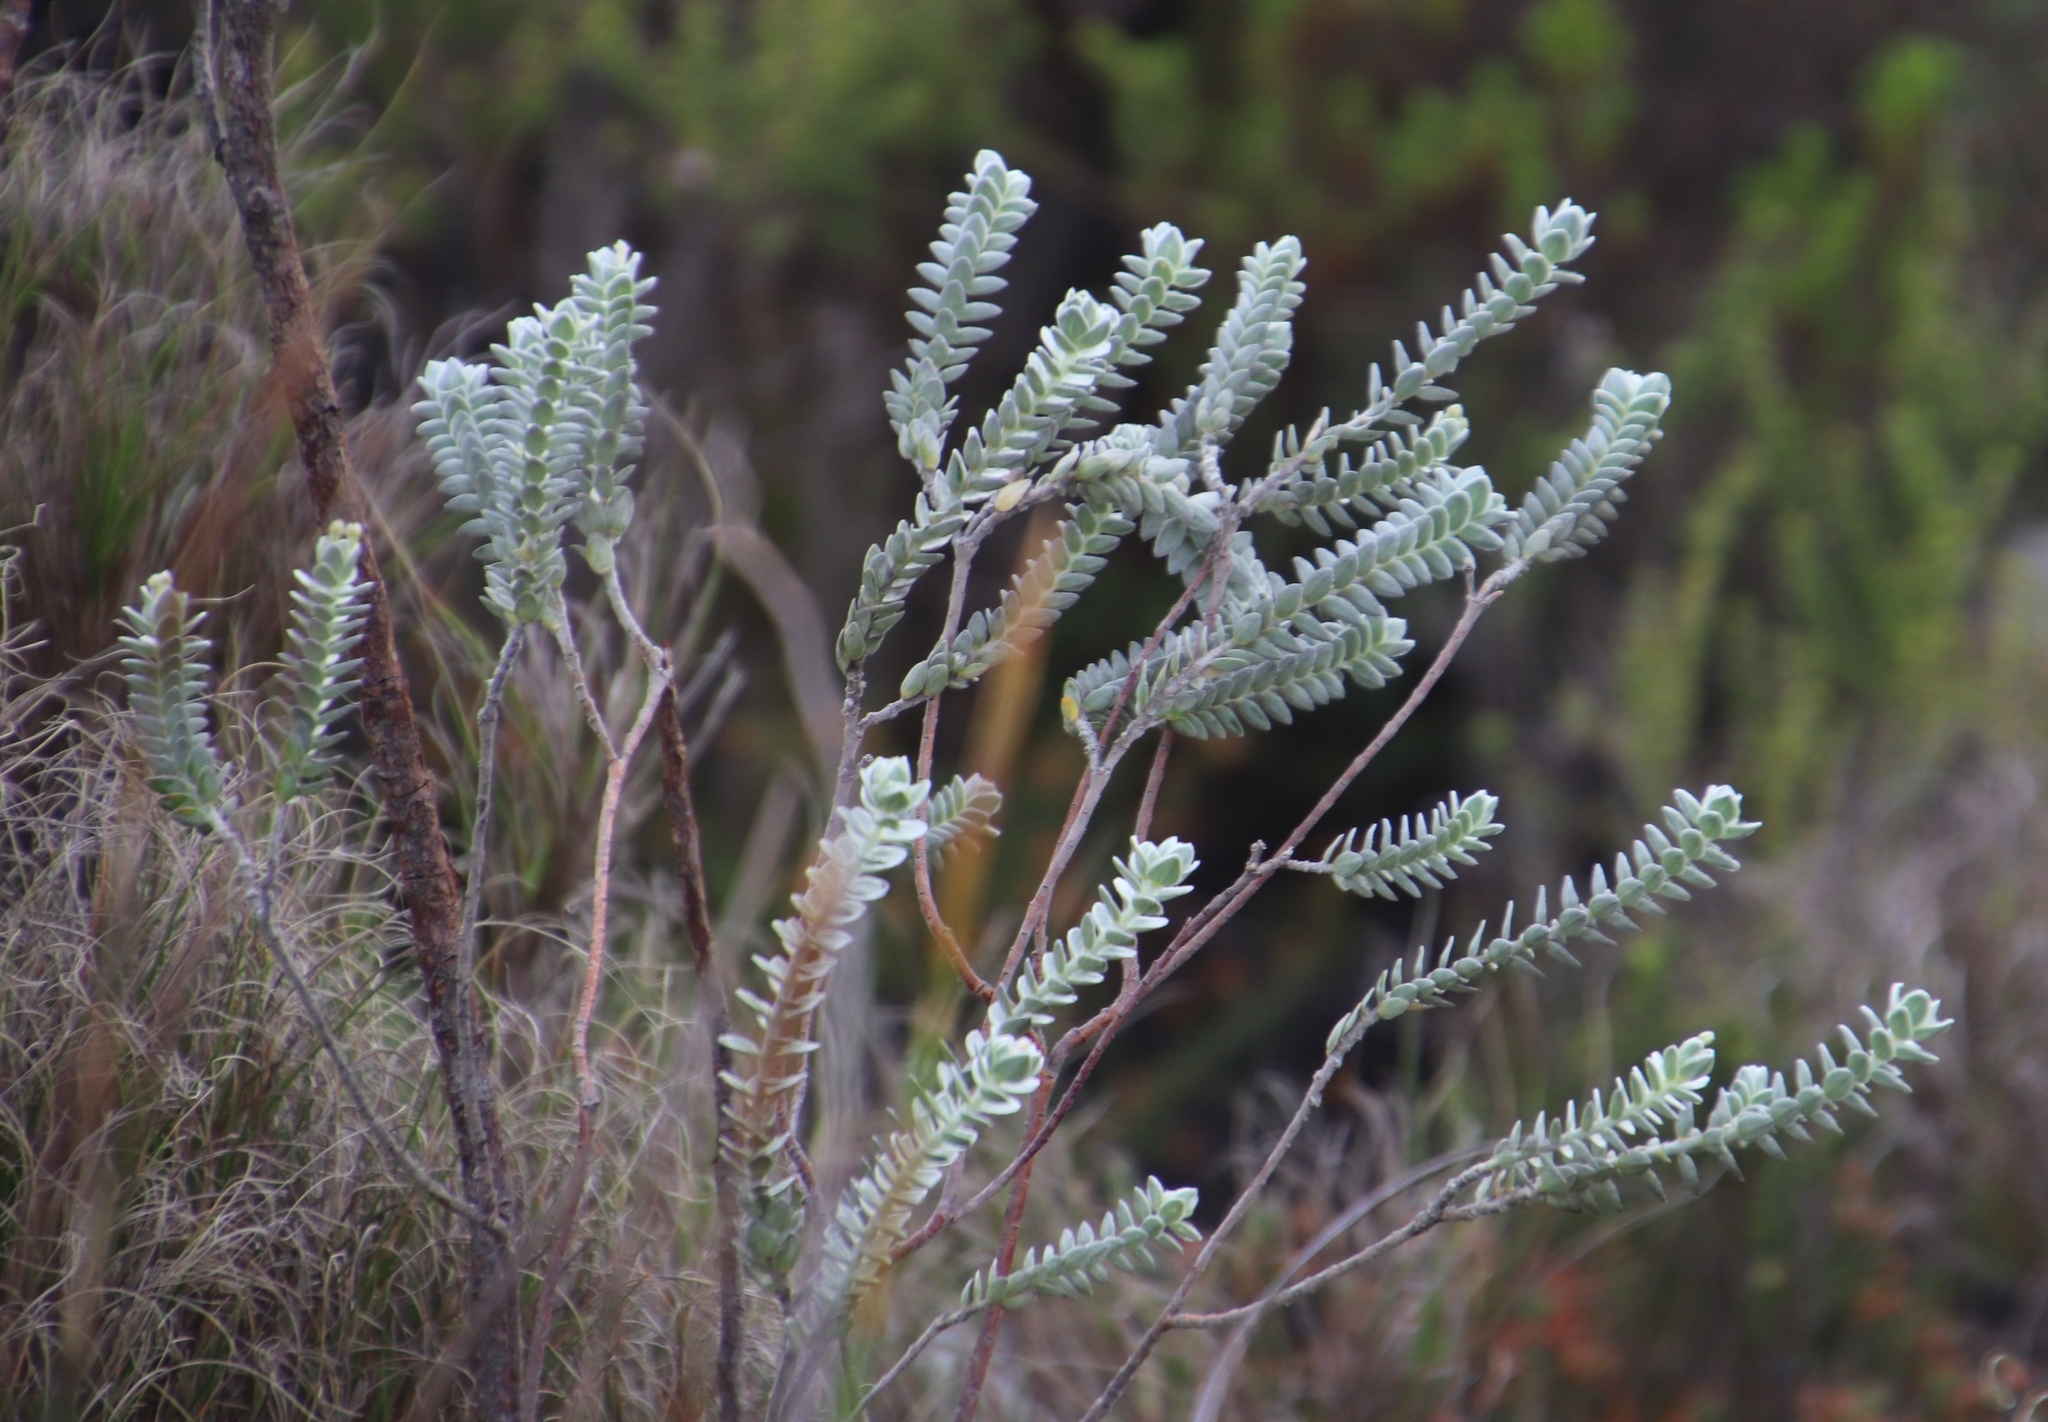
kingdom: Plantae
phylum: Tracheophyta
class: Magnoliopsida
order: Malvales
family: Thymelaeaceae
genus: Gnidia
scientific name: Gnidia imbricata
